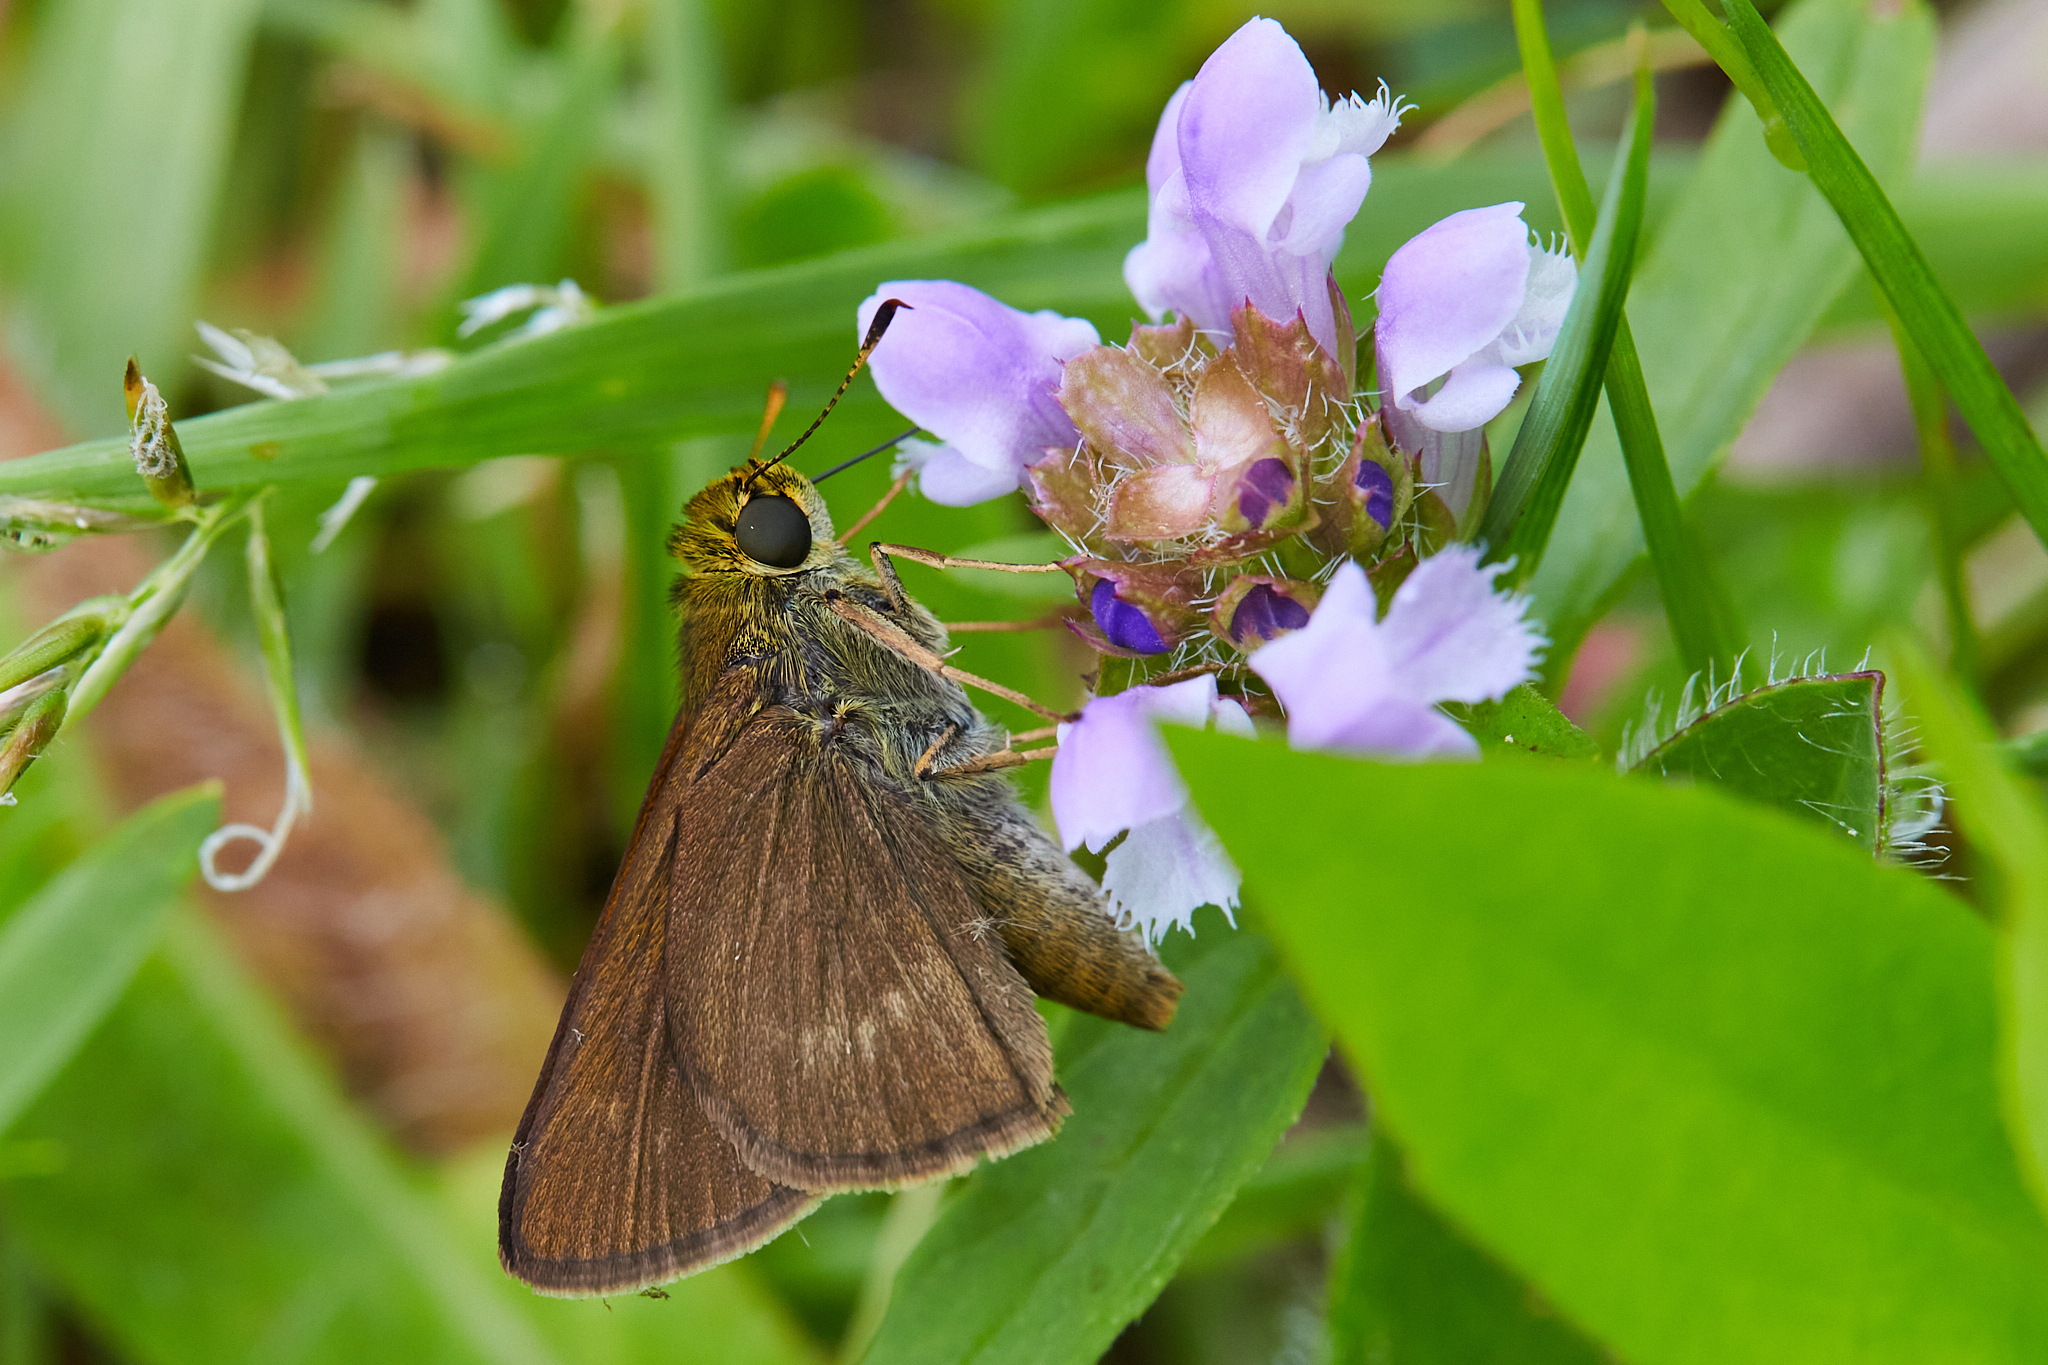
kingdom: Animalia
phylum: Arthropoda
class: Insecta
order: Lepidoptera
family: Hesperiidae
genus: Euphyes
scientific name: Euphyes vestris
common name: Dun skipper
